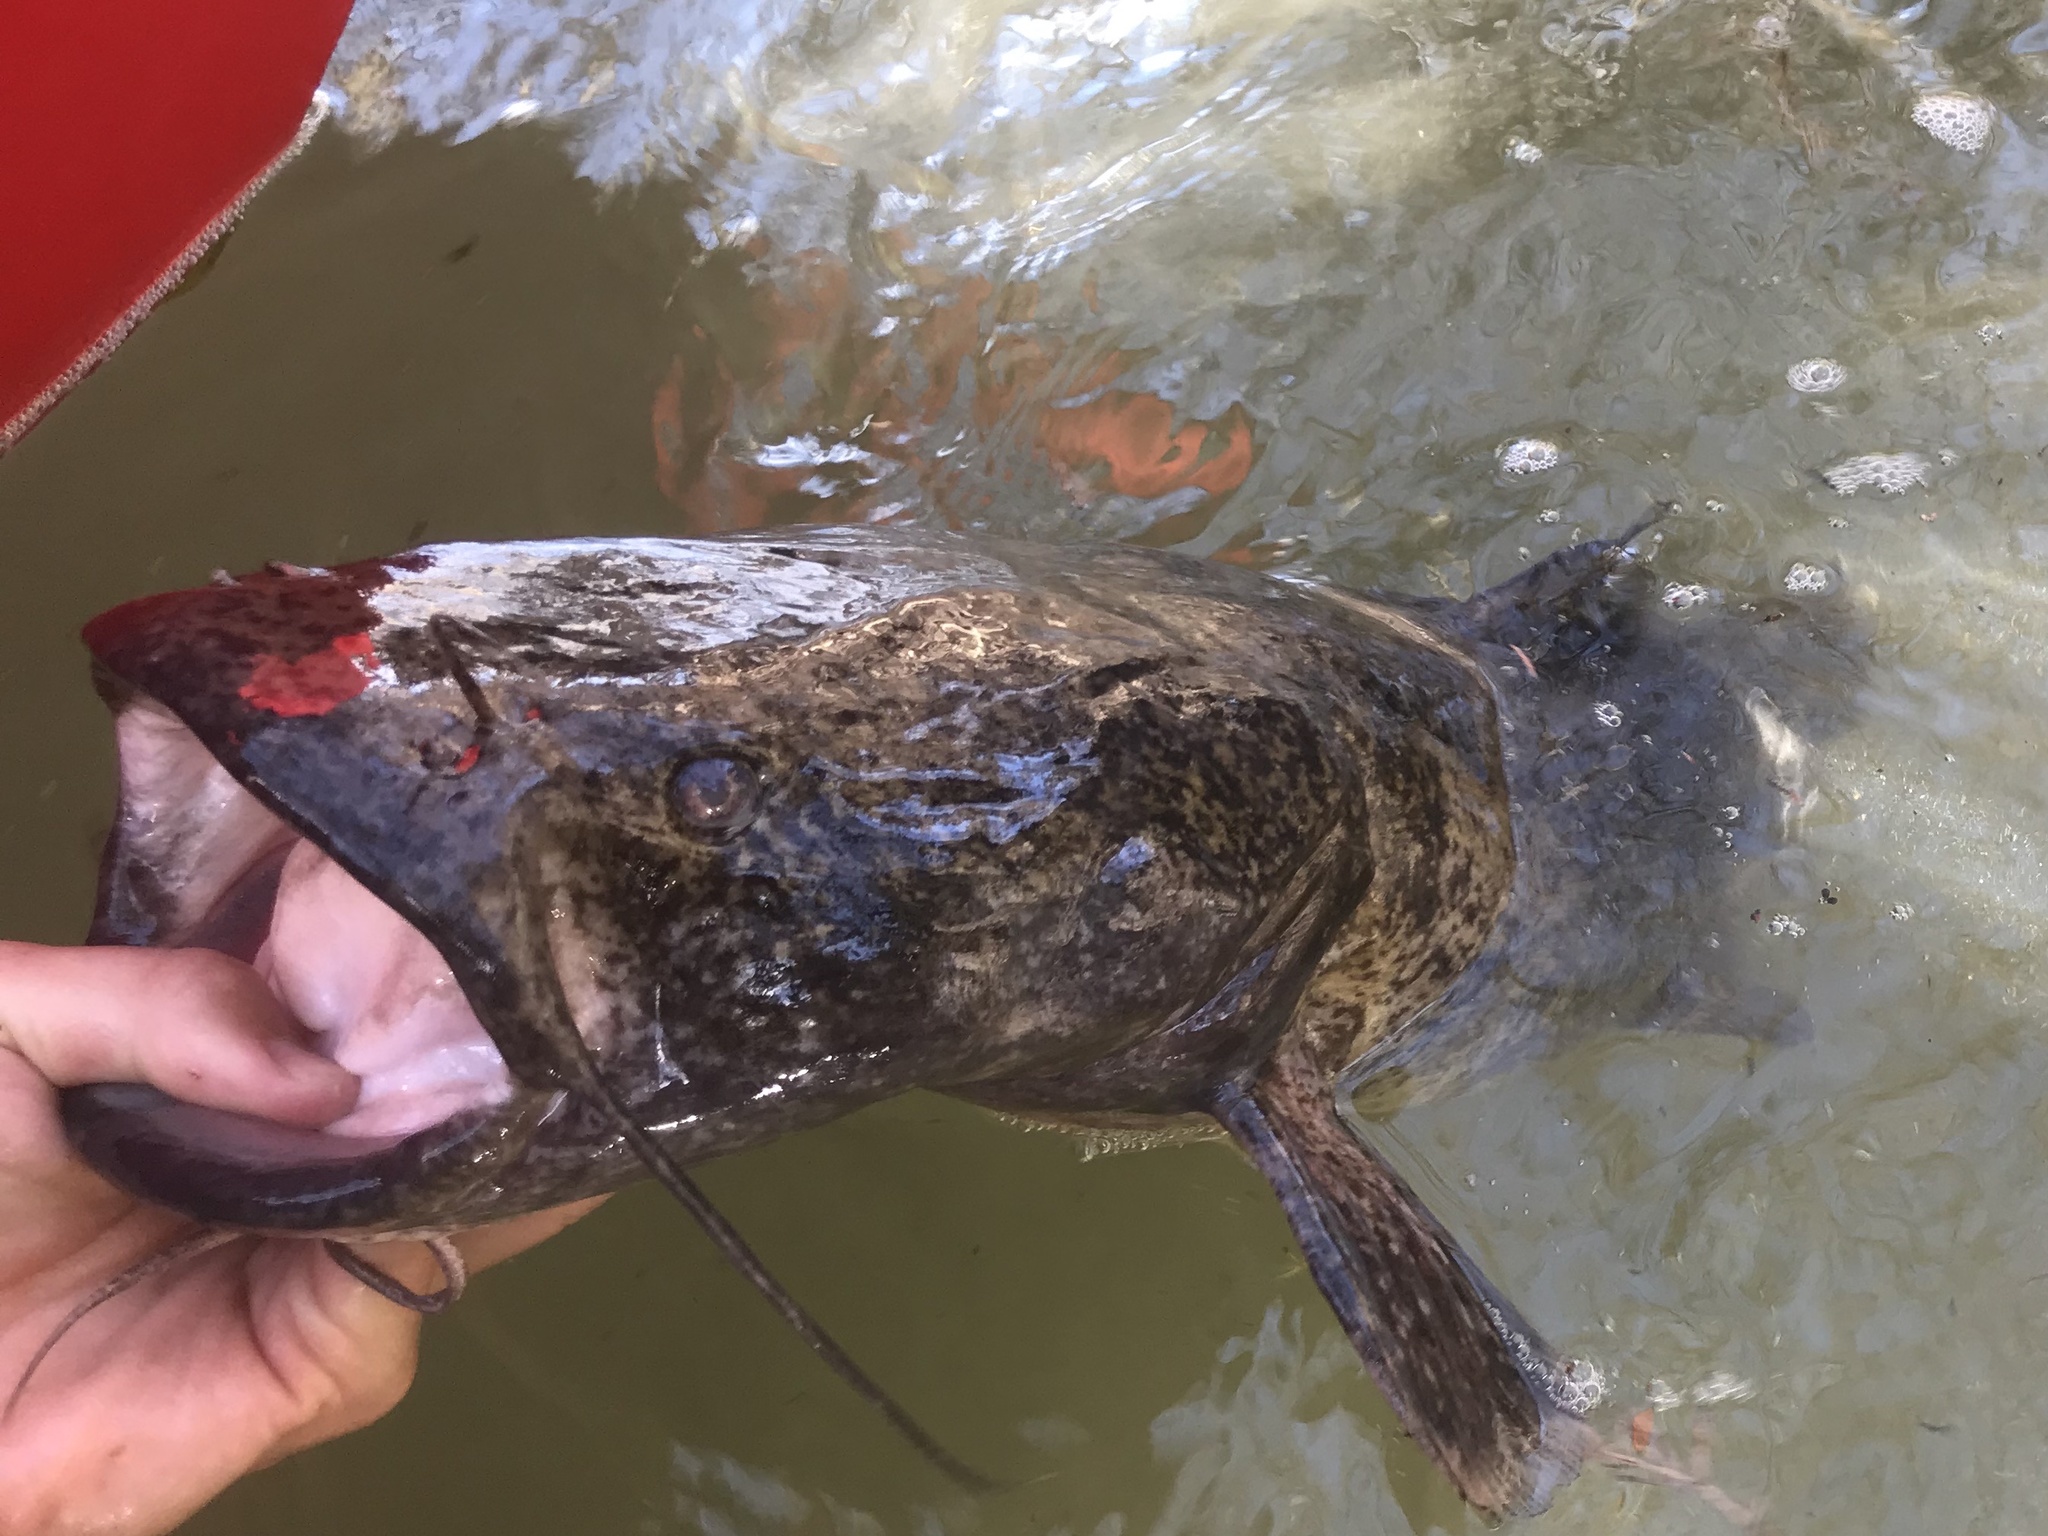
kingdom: Animalia
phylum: Chordata
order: Siluriformes
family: Ictaluridae
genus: Pylodictis
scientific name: Pylodictis olivaris
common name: Flathead catfish
